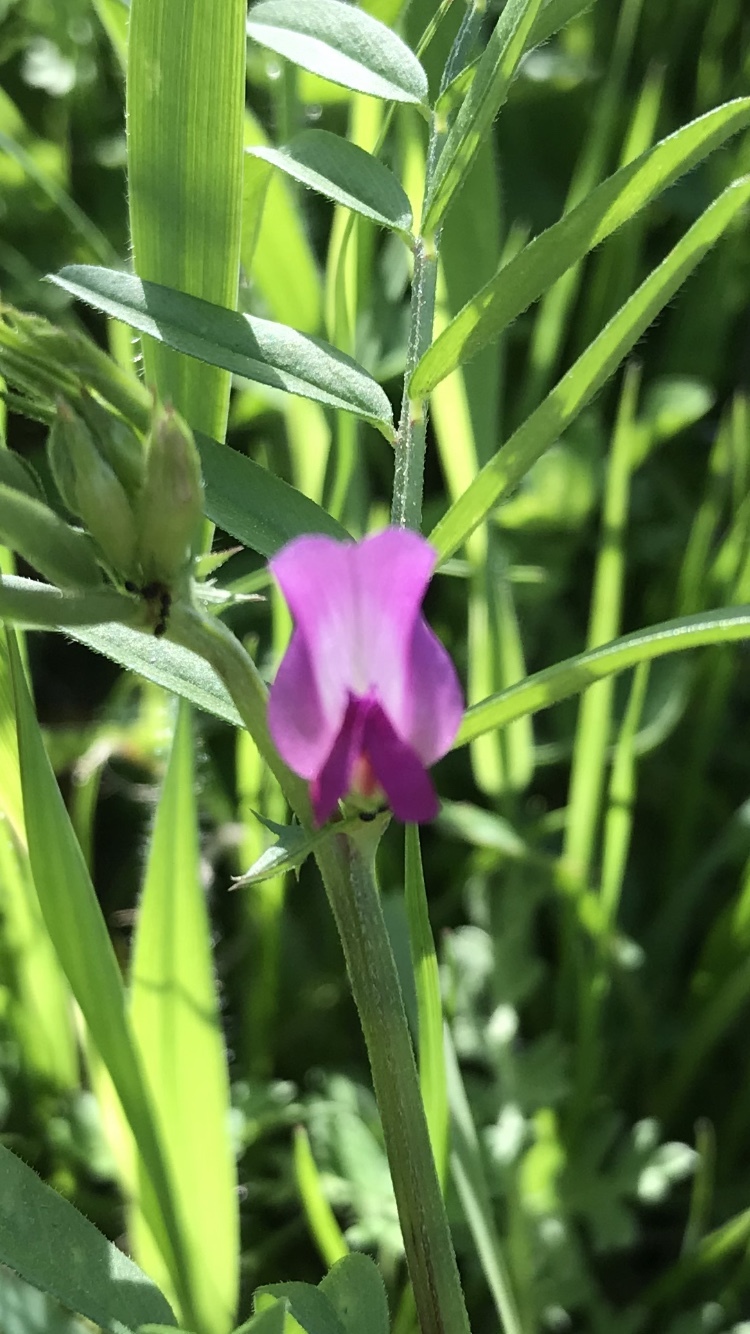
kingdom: Plantae
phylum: Tracheophyta
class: Magnoliopsida
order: Fabales
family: Fabaceae
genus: Vicia
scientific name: Vicia sativa
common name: Garden vetch
